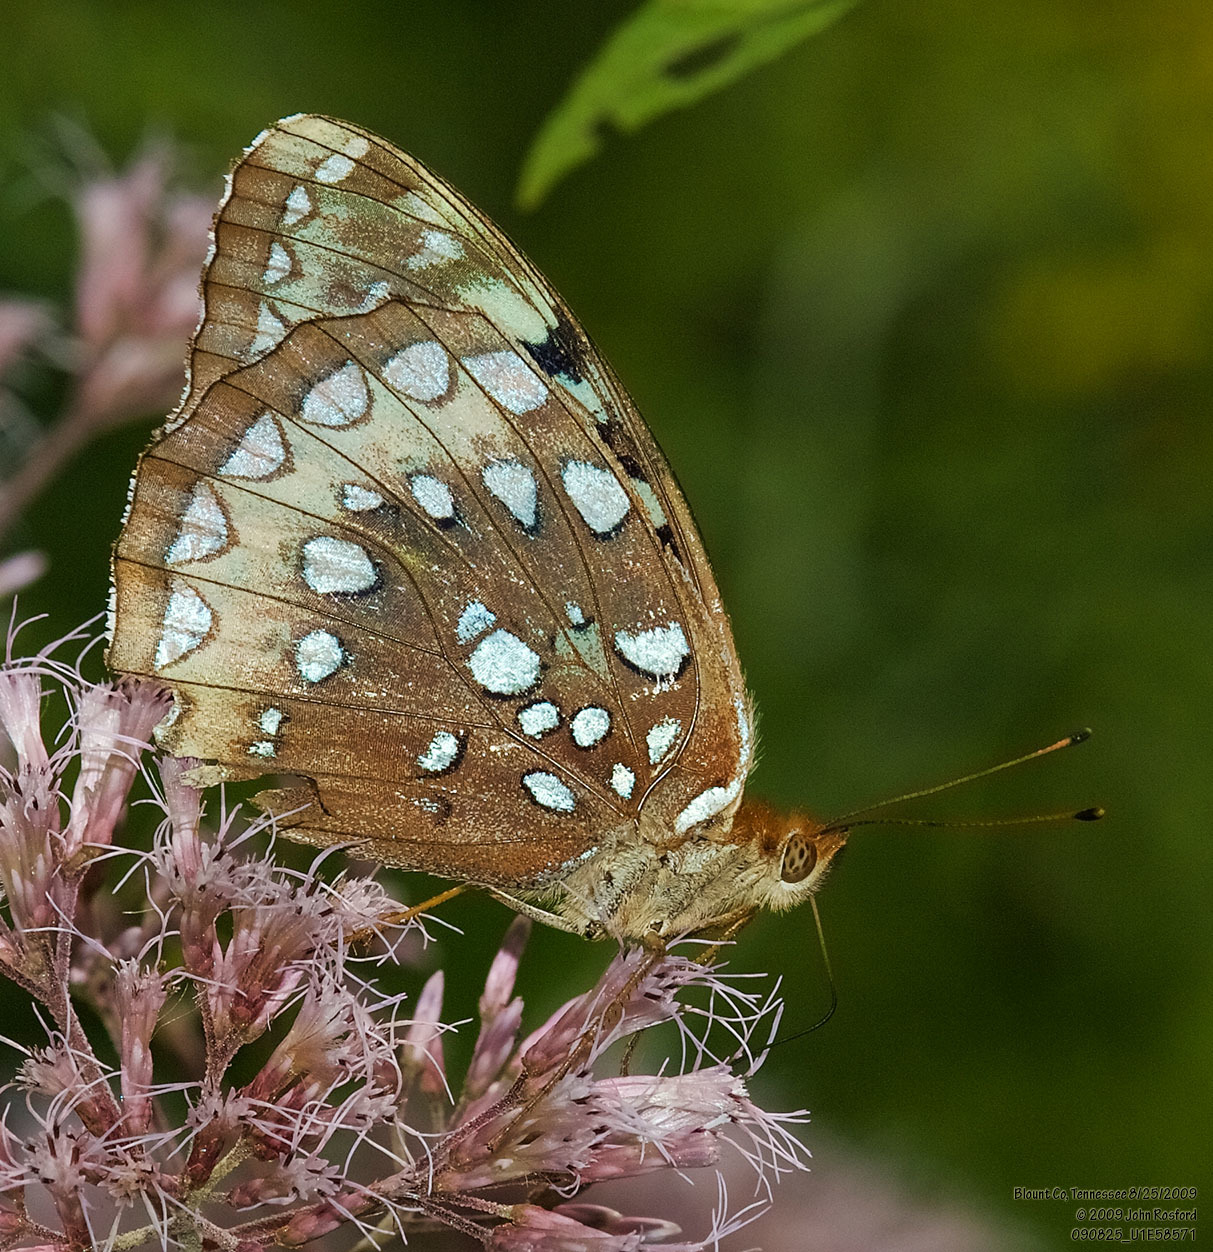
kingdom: Animalia
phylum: Arthropoda
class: Insecta
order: Lepidoptera
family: Nymphalidae
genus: Speyeria
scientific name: Speyeria cybele
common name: Great spangled fritillary
